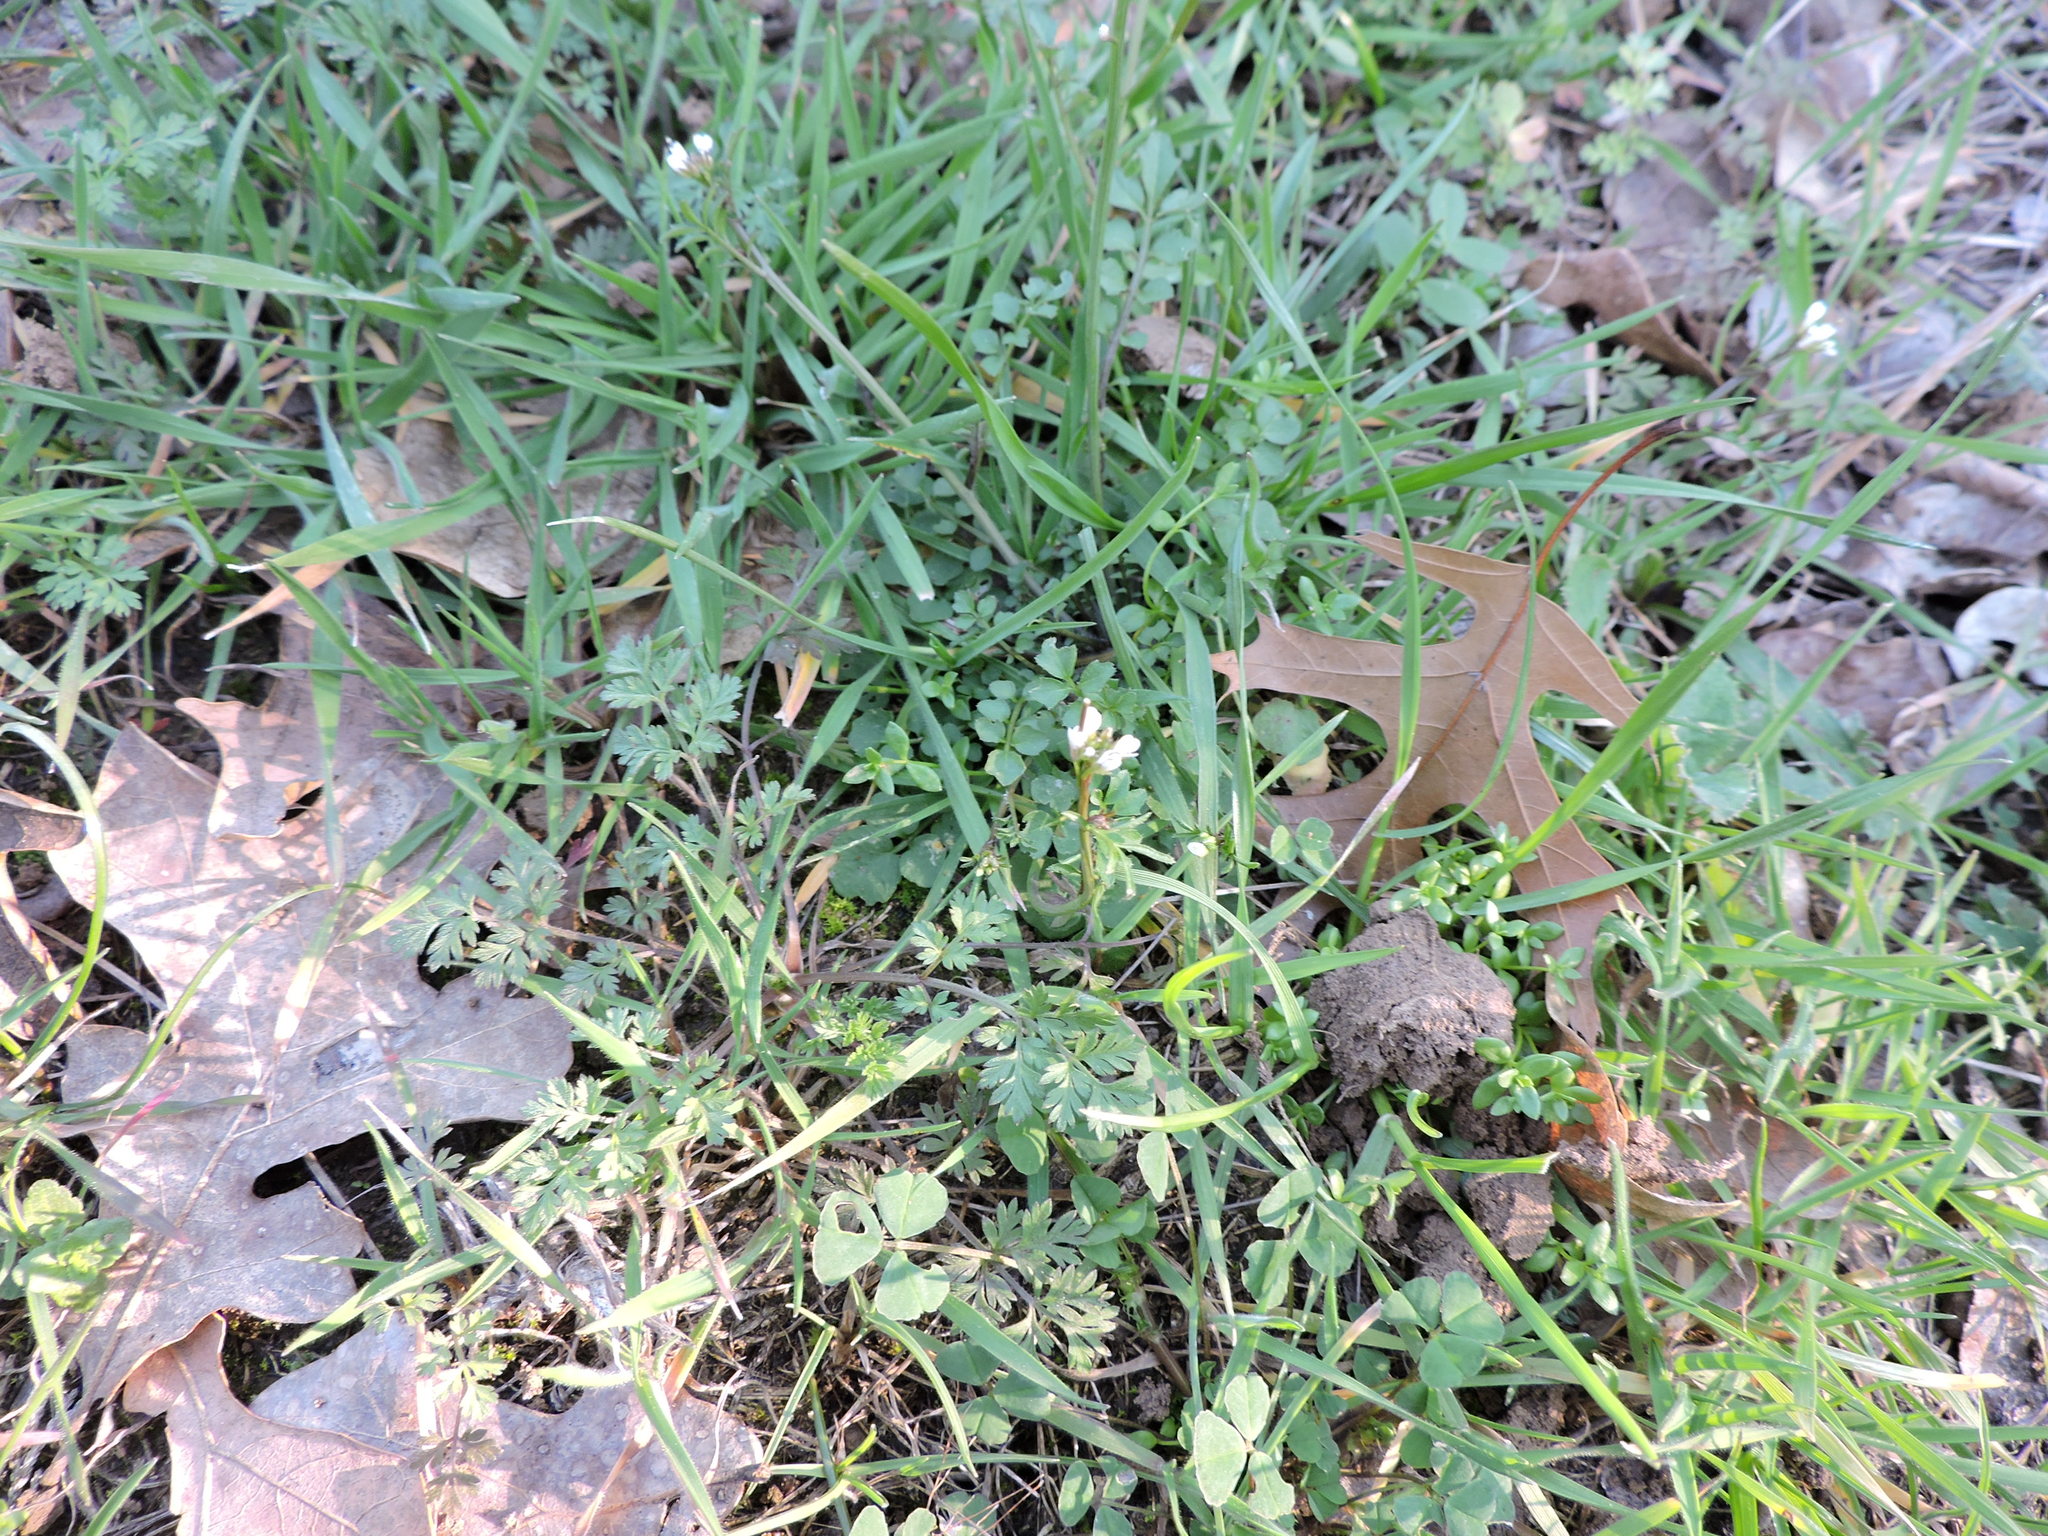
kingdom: Plantae
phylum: Tracheophyta
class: Magnoliopsida
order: Brassicales
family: Brassicaceae
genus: Cardamine
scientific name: Cardamine parviflora
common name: Sand bittercress
